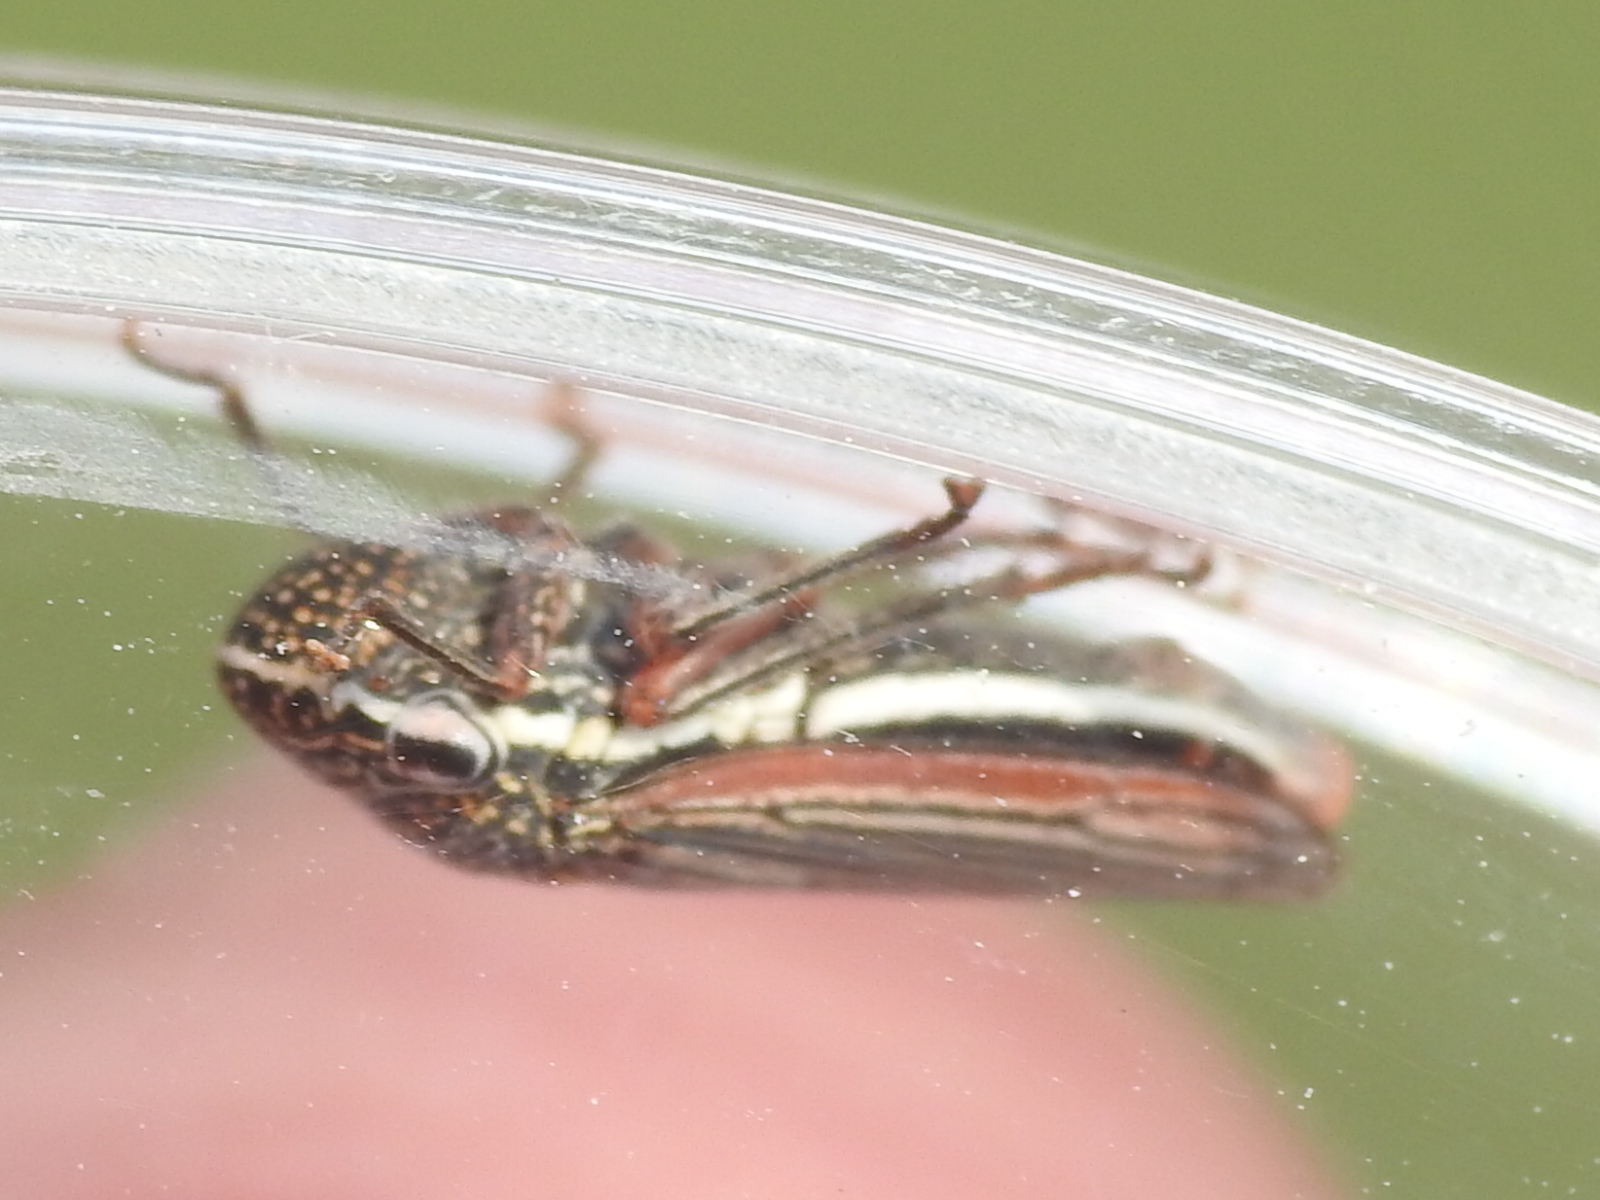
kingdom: Animalia
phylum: Arthropoda
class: Insecta
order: Hemiptera
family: Cicadellidae
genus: Cuerna
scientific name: Cuerna costalis
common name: Lateral-lined sharpshooter
